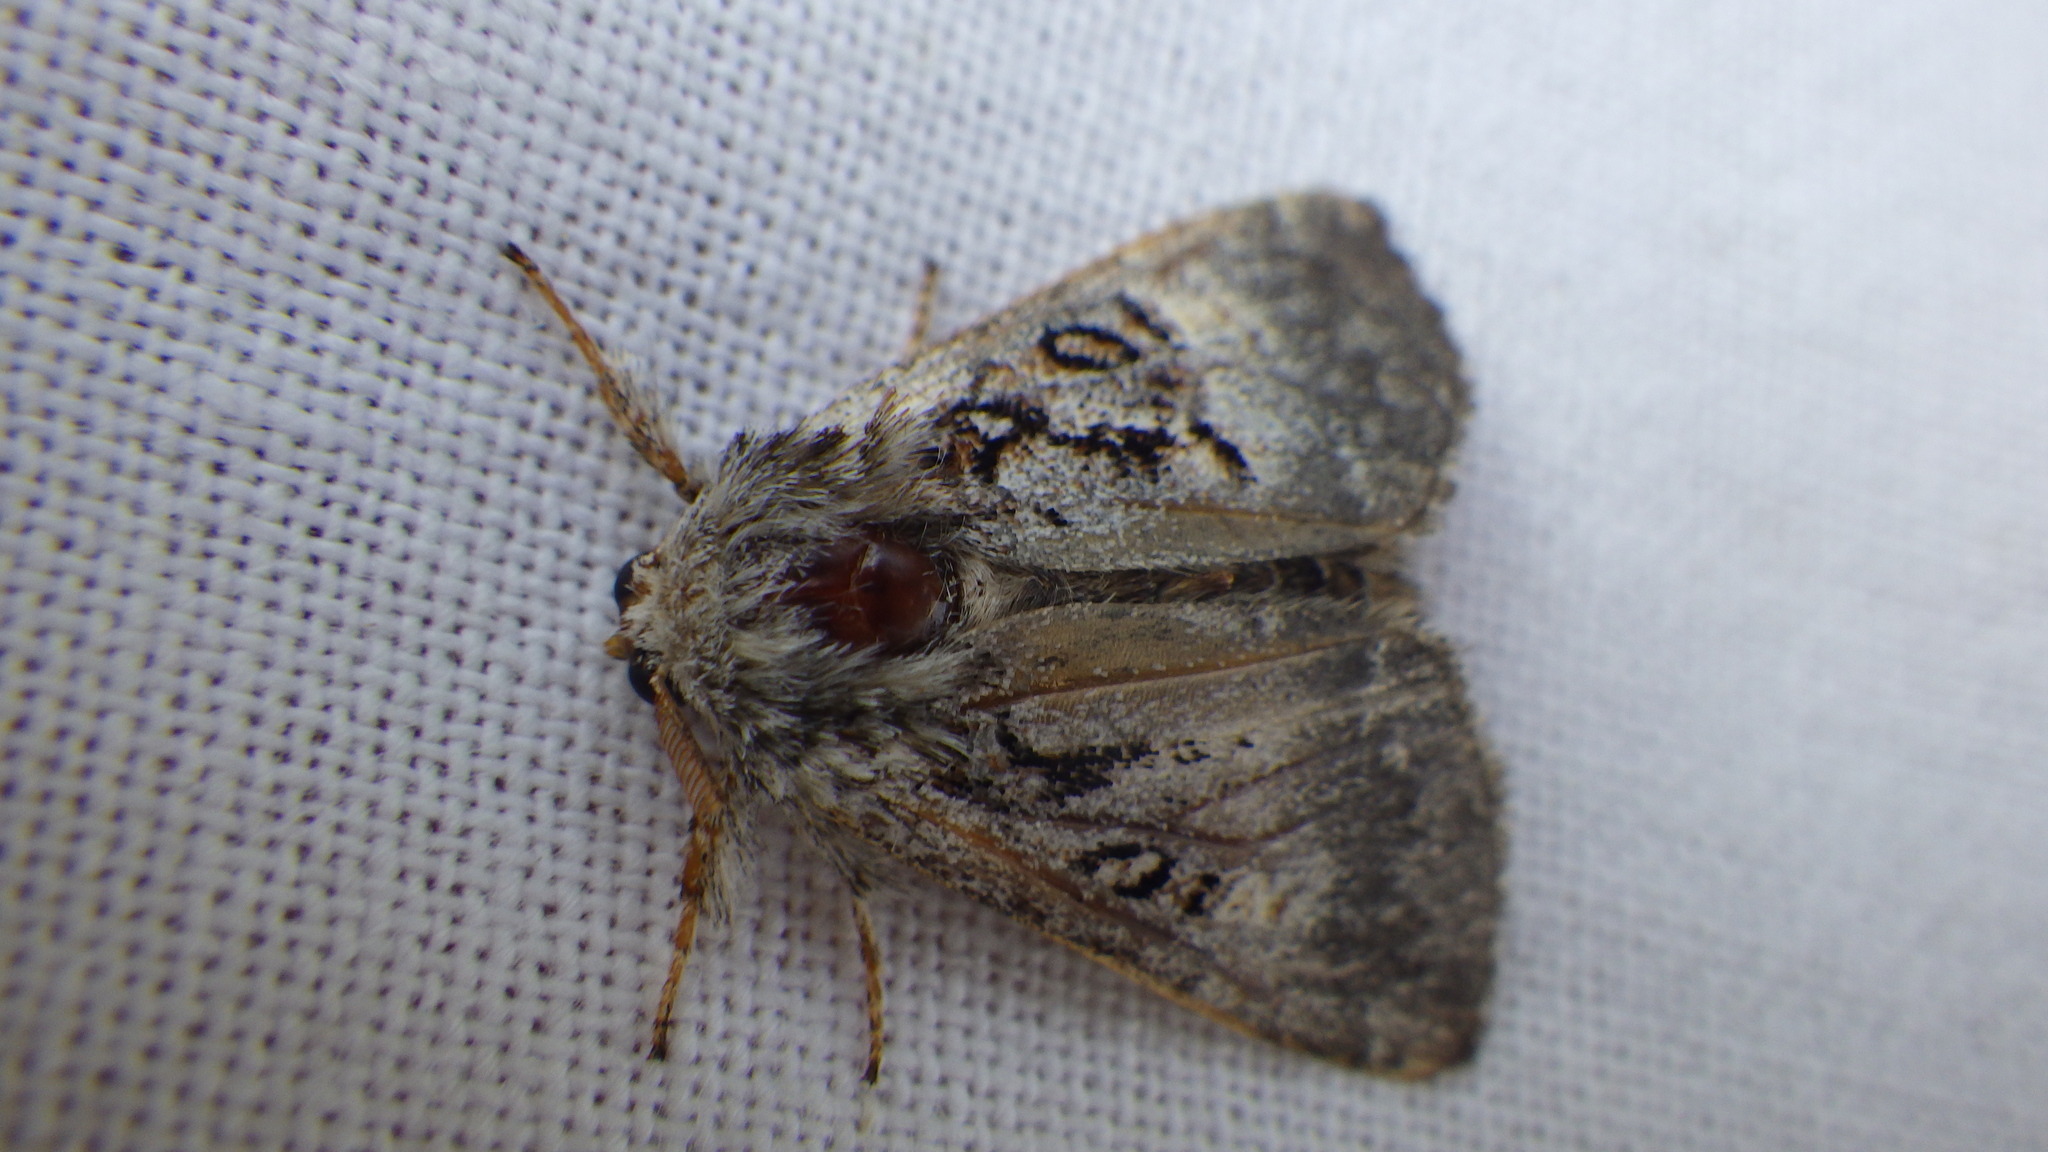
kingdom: Animalia
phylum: Arthropoda
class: Insecta
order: Lepidoptera
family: Noctuidae
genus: Colocasia
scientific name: Colocasia coryli
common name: Nut-tree tussock
